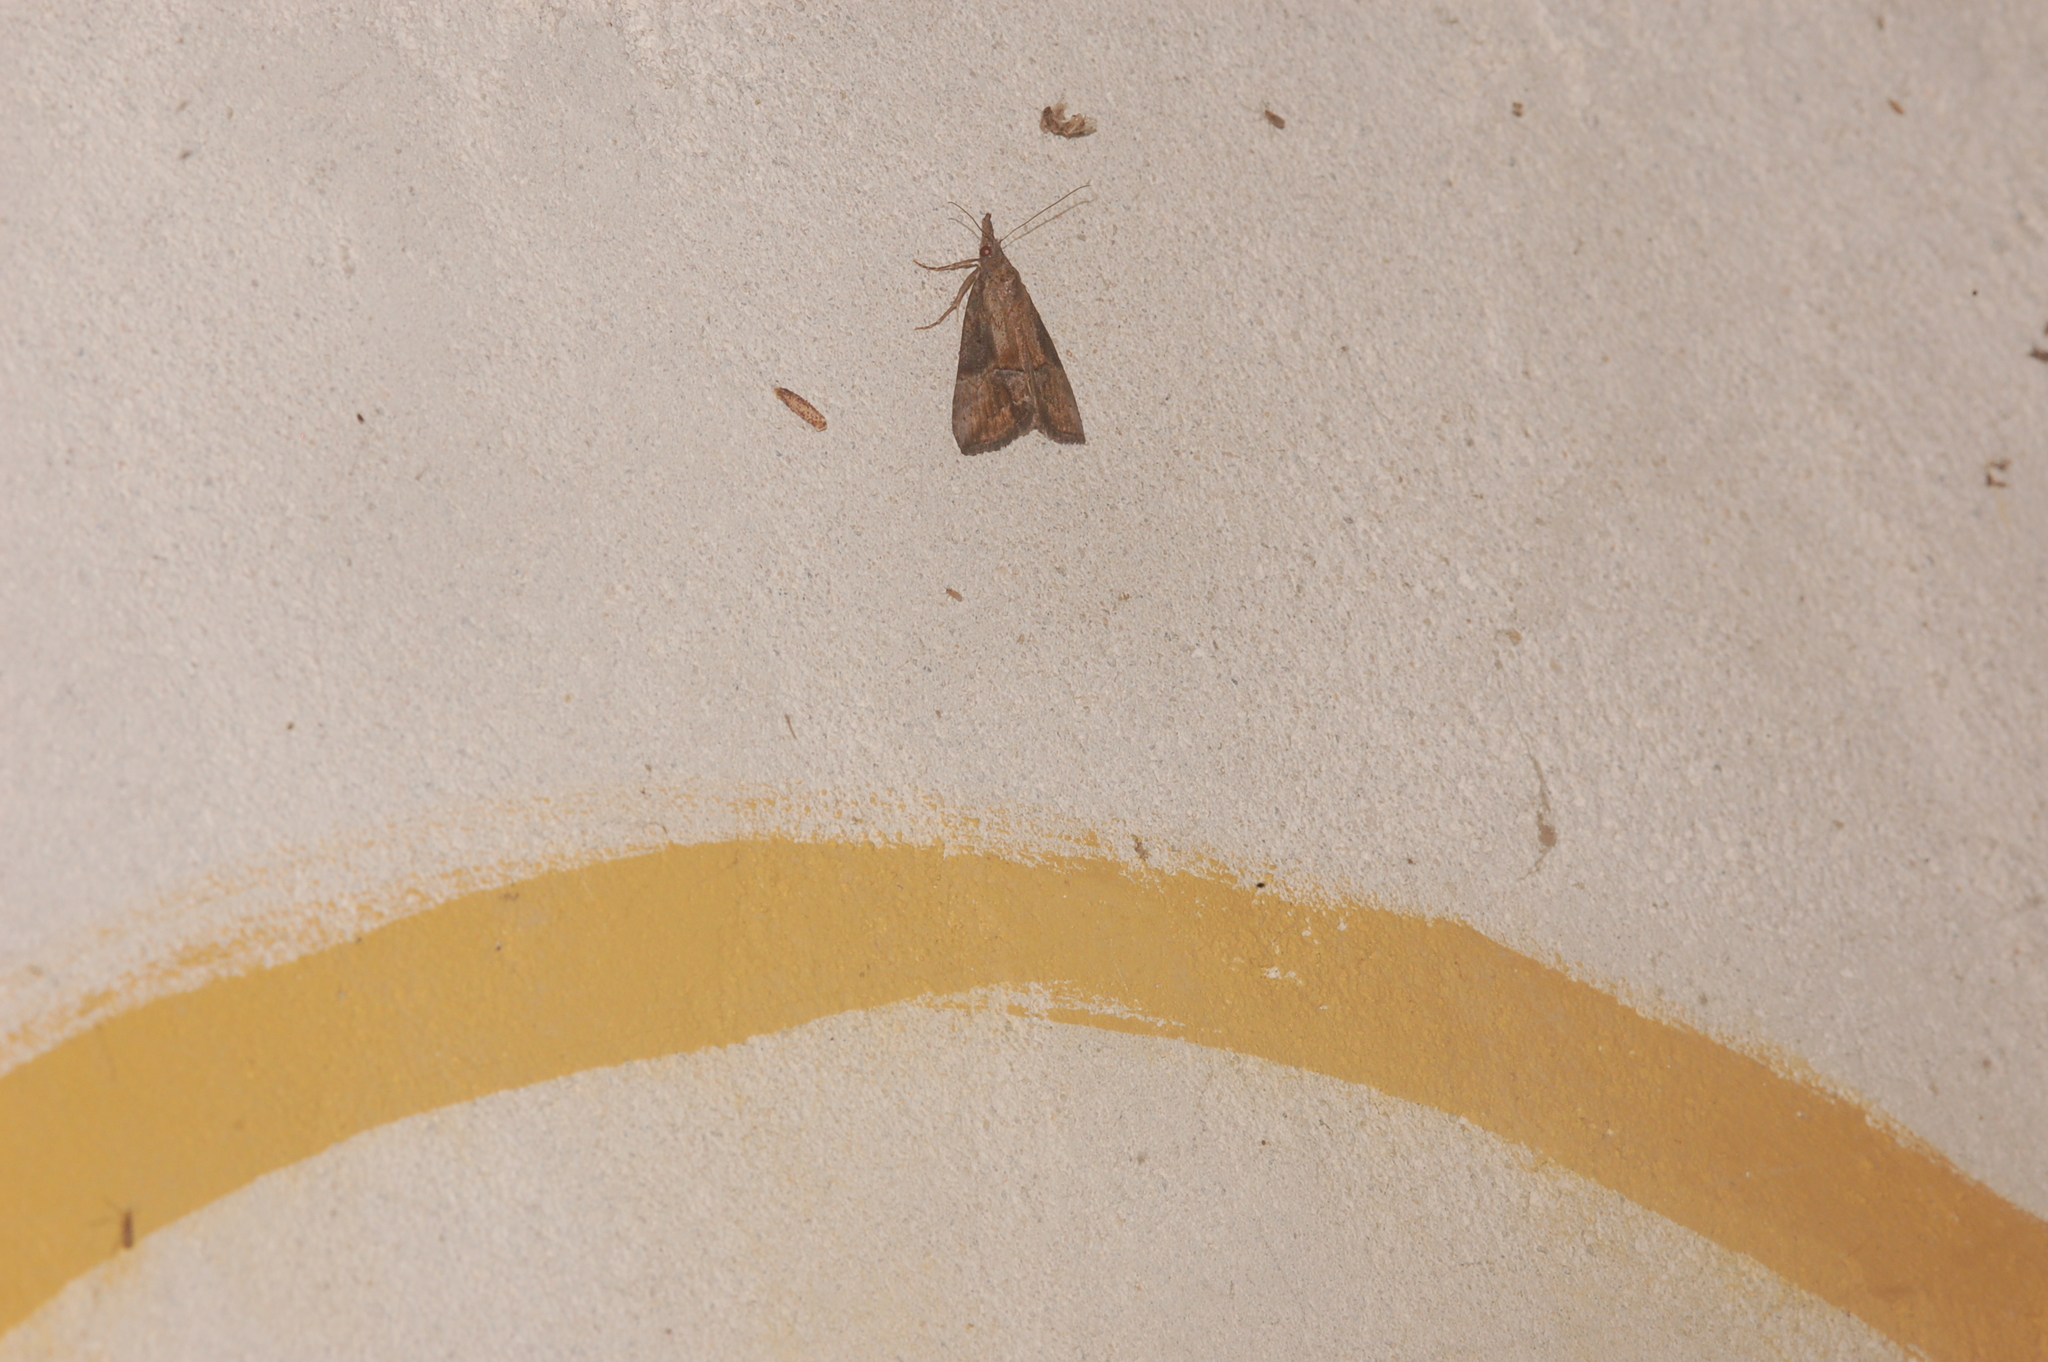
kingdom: Animalia
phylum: Arthropoda
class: Insecta
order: Lepidoptera
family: Erebidae
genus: Hypena
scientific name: Hypena scabra
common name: Green cloverworm
